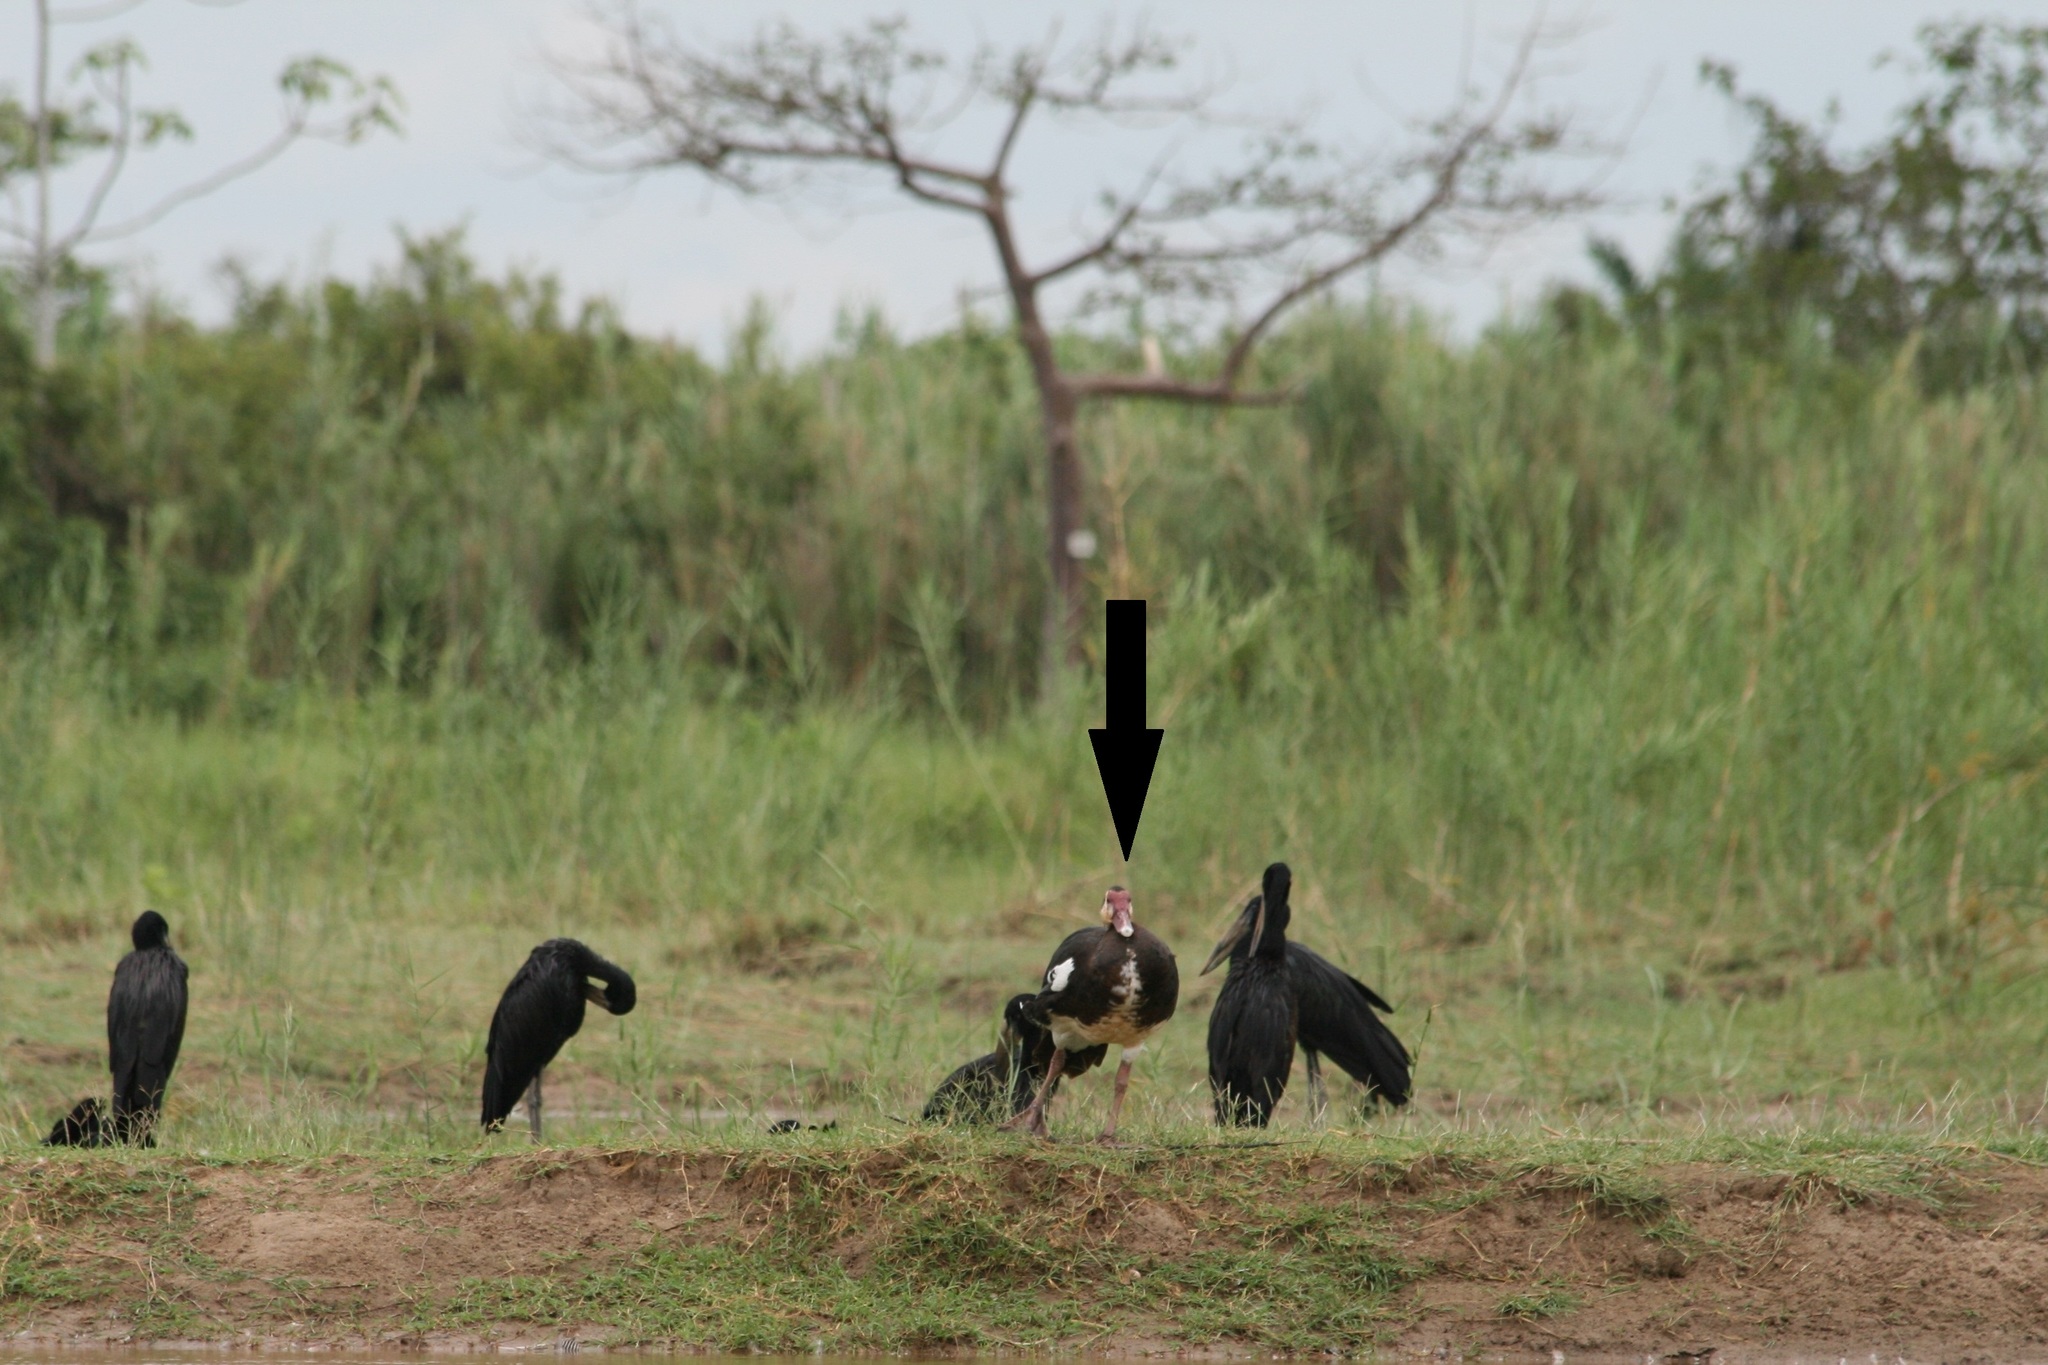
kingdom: Animalia
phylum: Chordata
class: Aves
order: Anseriformes
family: Anatidae
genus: Plectropterus
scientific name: Plectropterus gambensis
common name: Spur-winged goose
